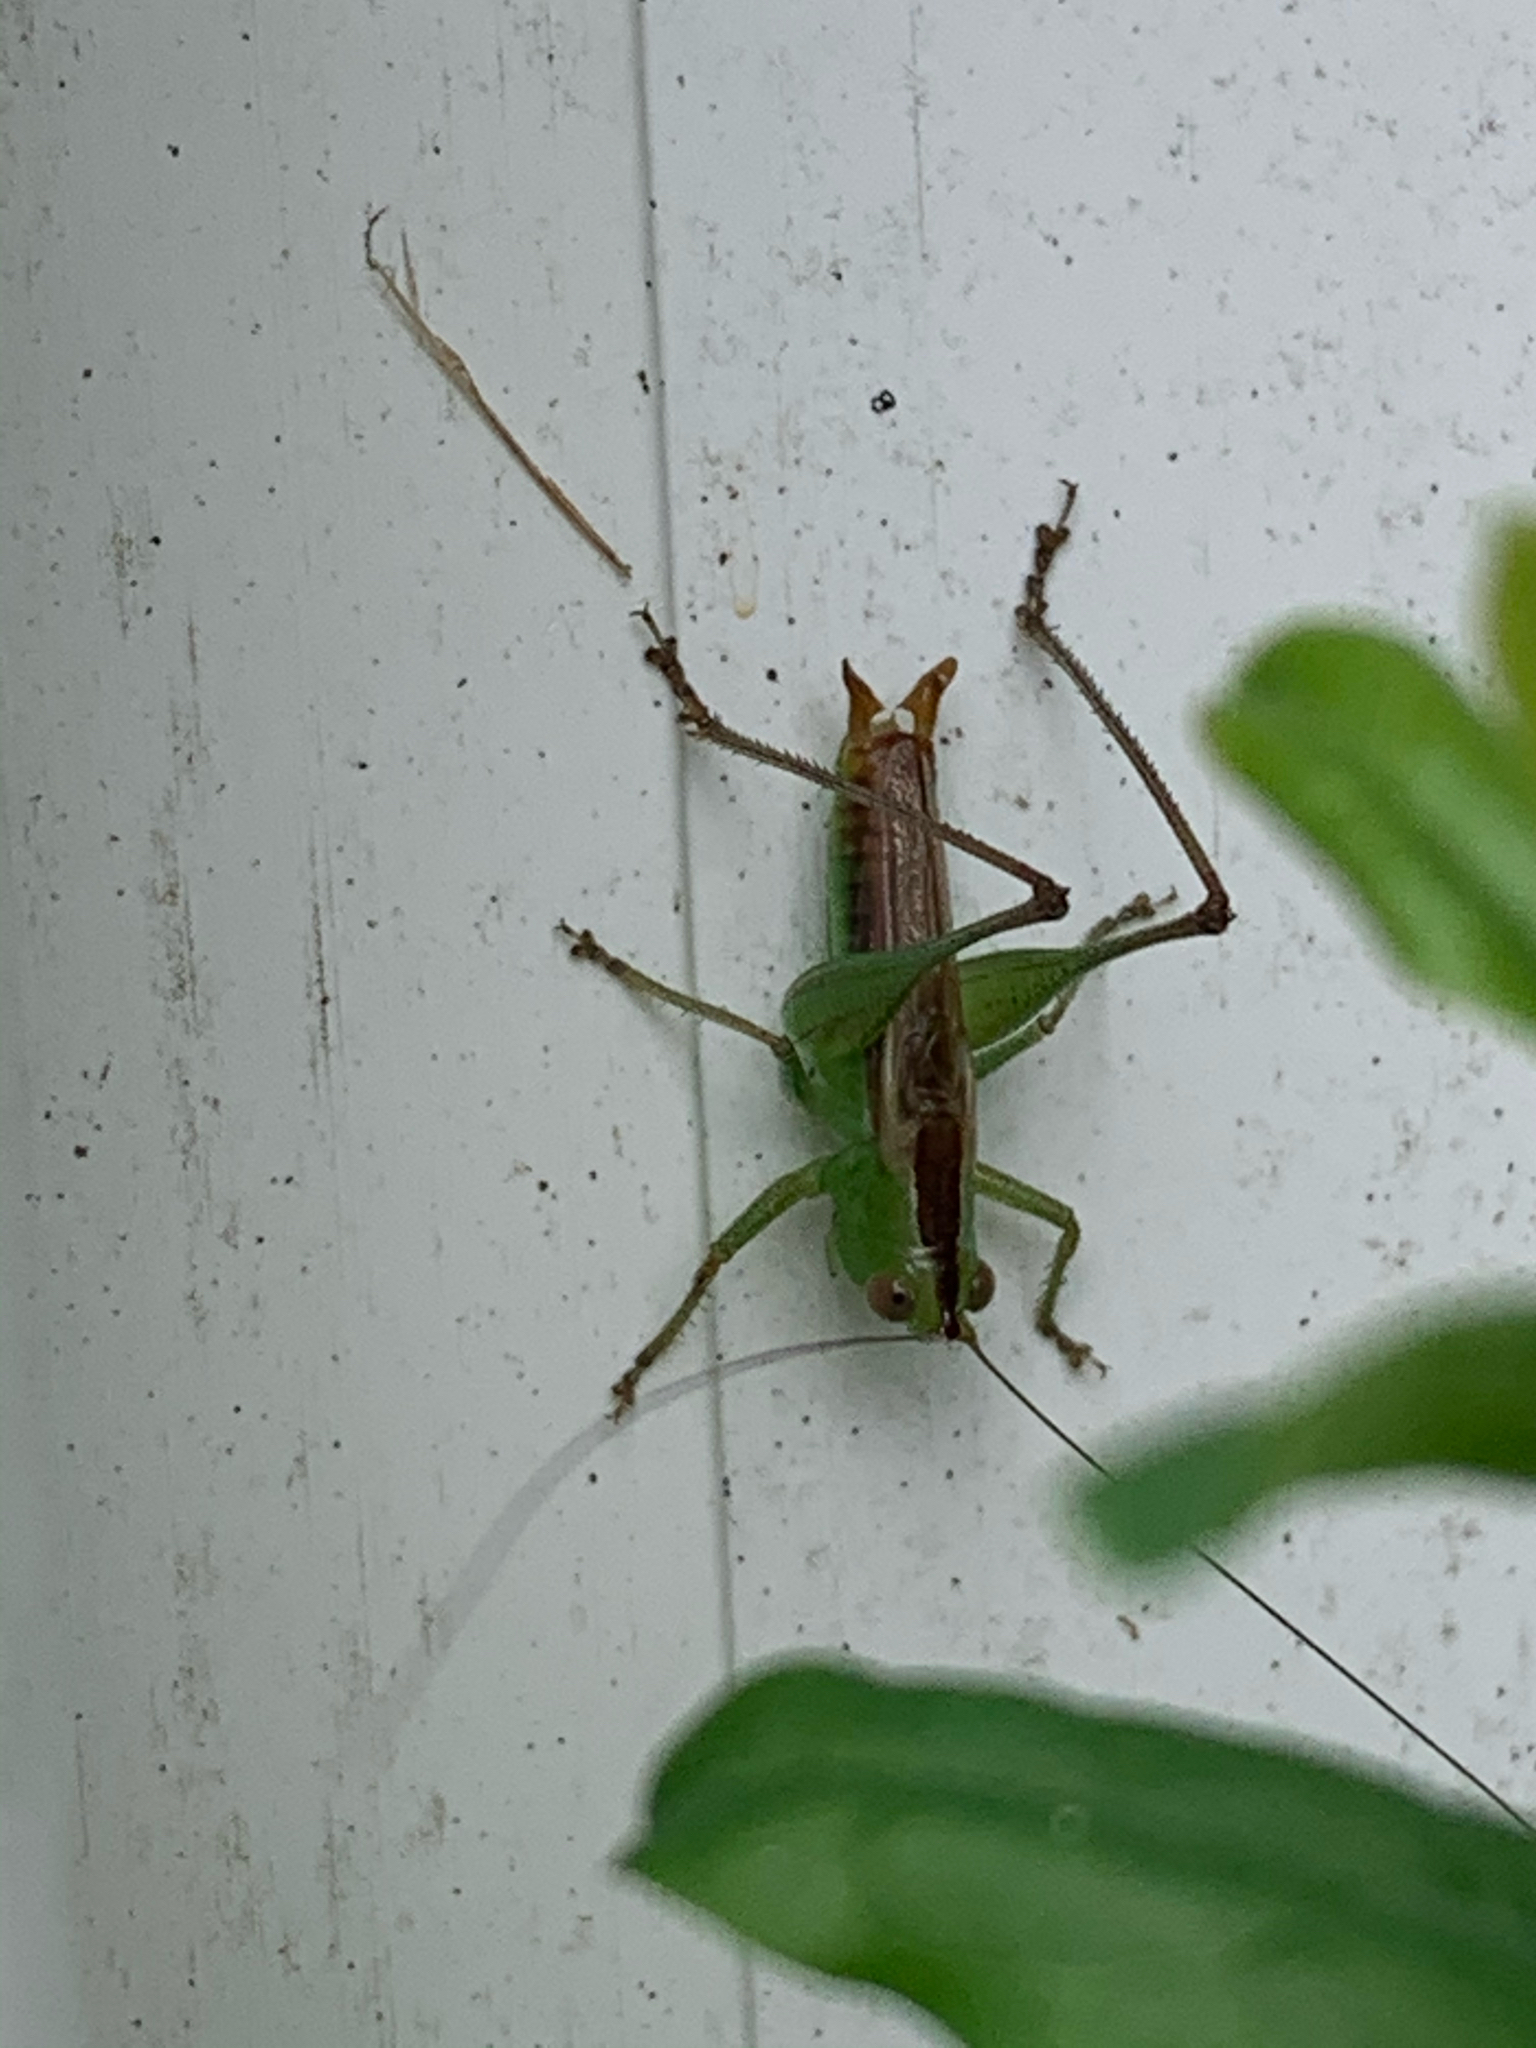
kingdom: Animalia
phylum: Arthropoda
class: Insecta
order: Orthoptera
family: Tettigoniidae
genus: Conocephalus
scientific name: Conocephalus brevipennis
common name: Short-winged meadow katydid
